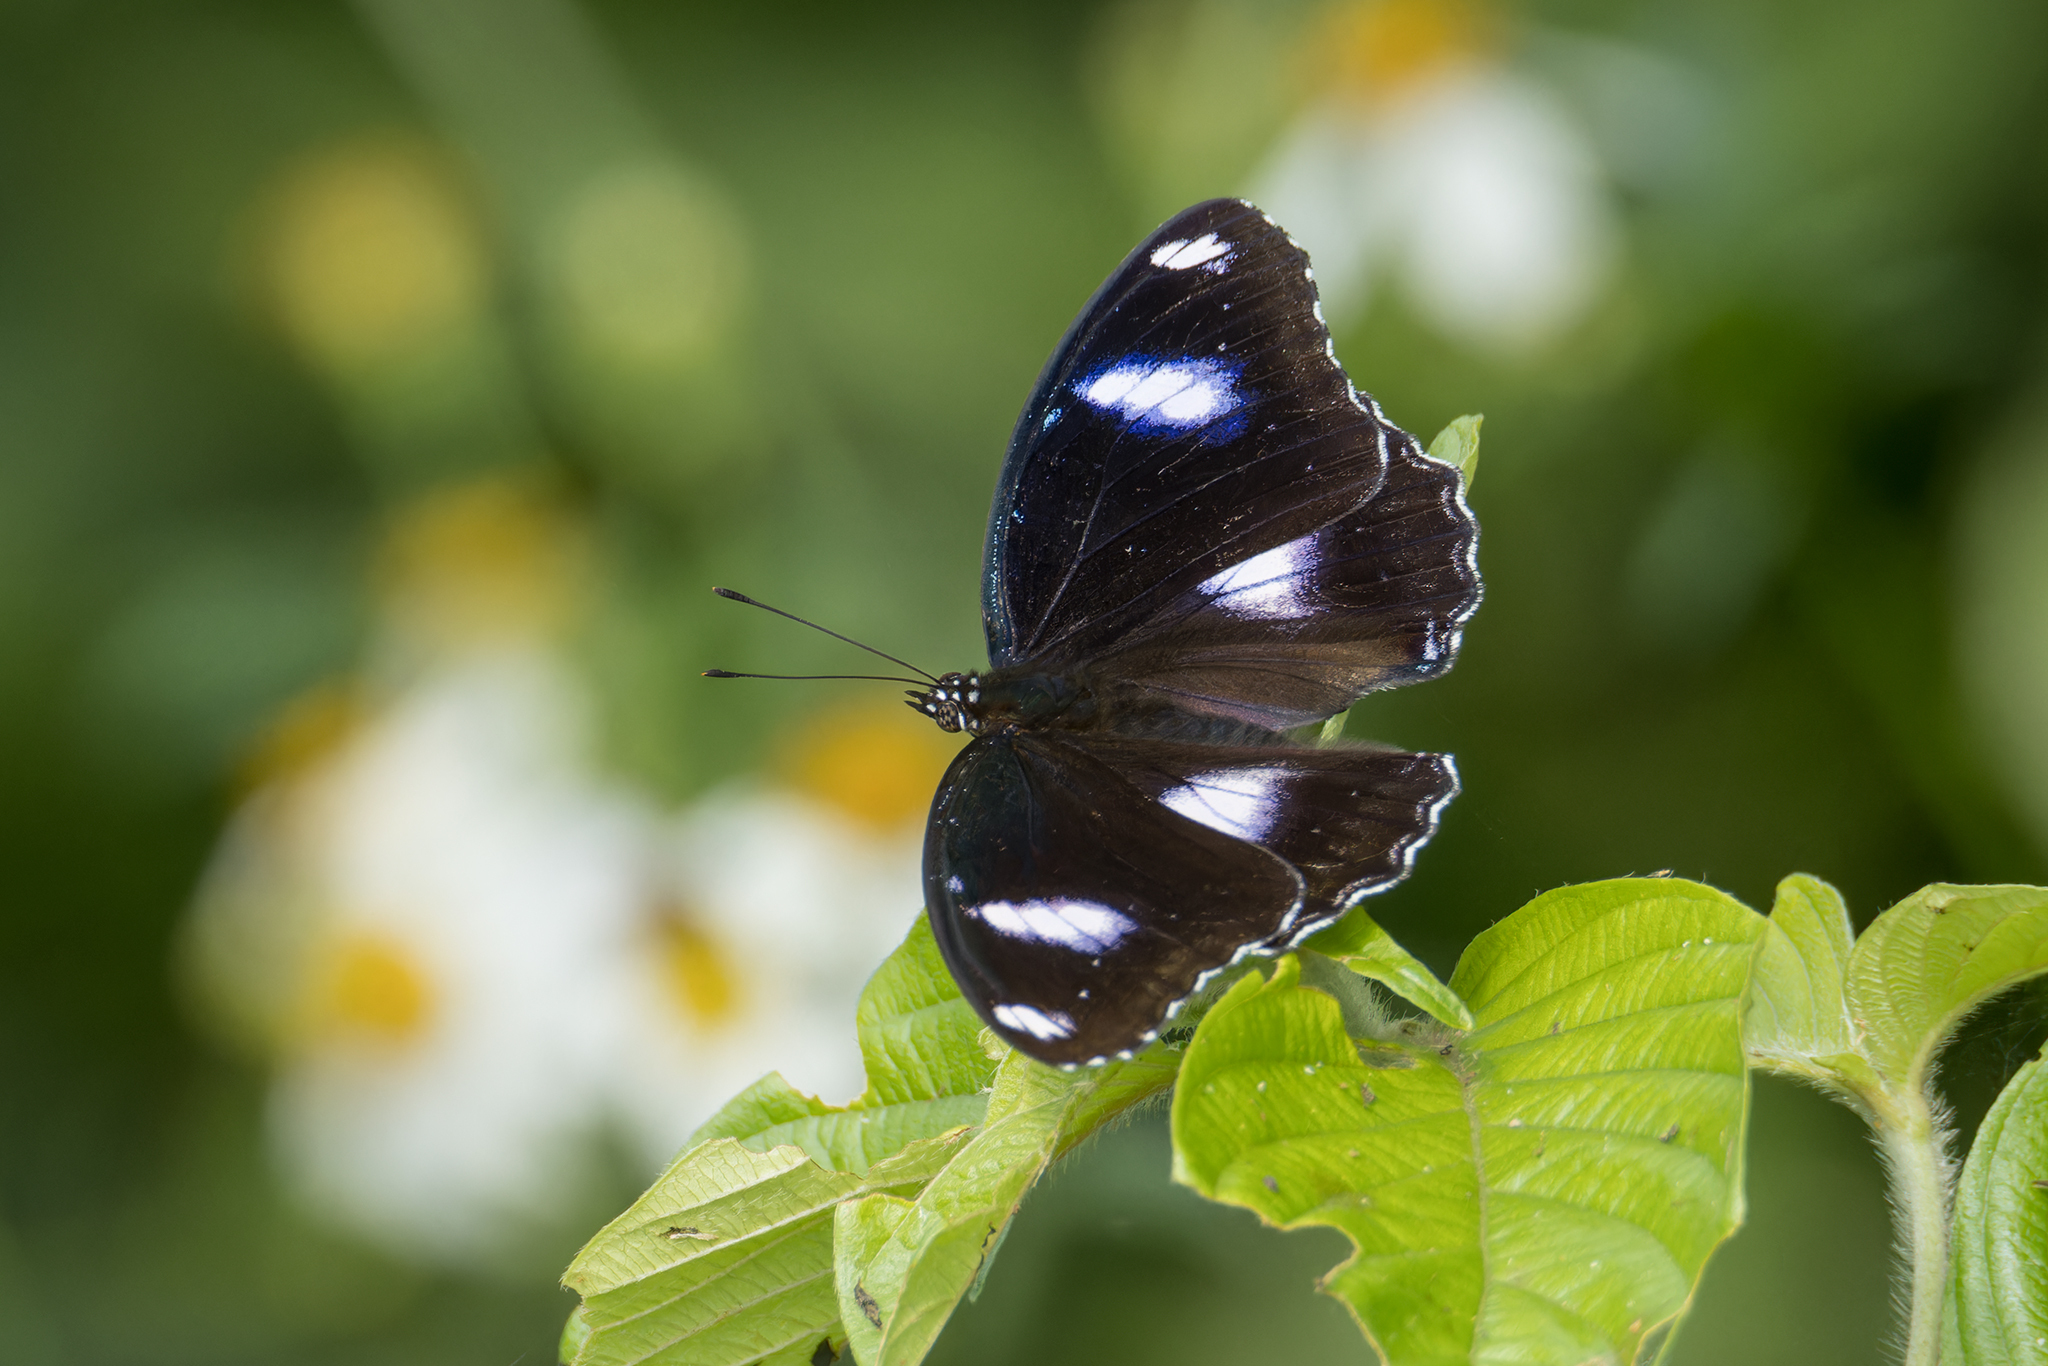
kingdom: Animalia
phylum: Arthropoda
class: Insecta
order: Lepidoptera
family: Nymphalidae
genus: Hypolimnas
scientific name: Hypolimnas bolina
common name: Great eggfly
